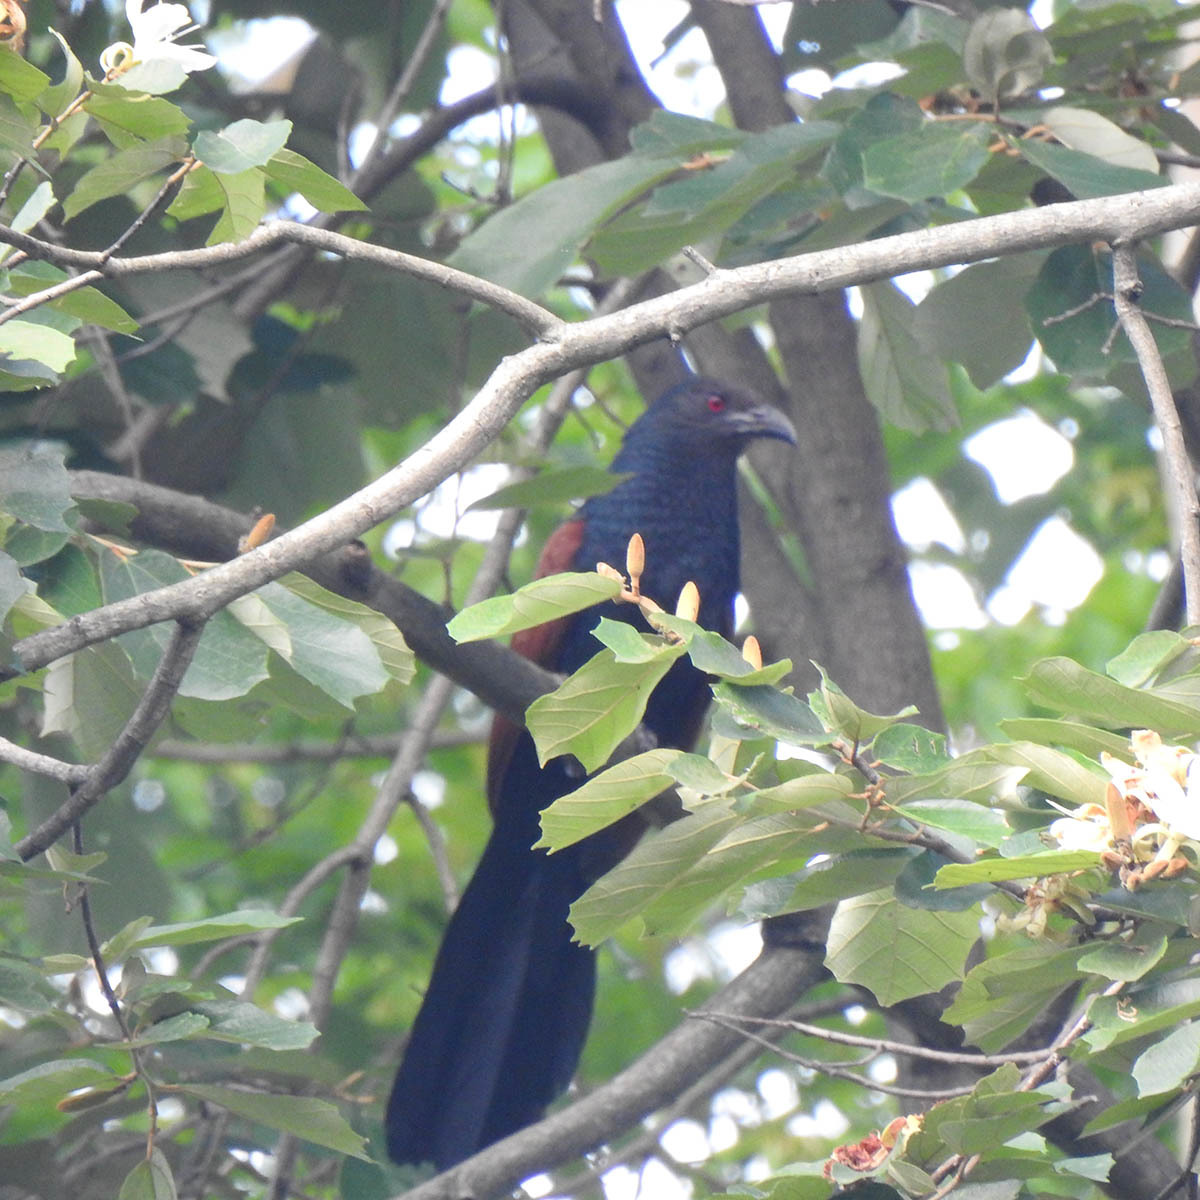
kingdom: Animalia
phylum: Chordata
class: Aves
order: Cuculiformes
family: Cuculidae
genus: Centropus
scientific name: Centropus sinensis
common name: Greater coucal
